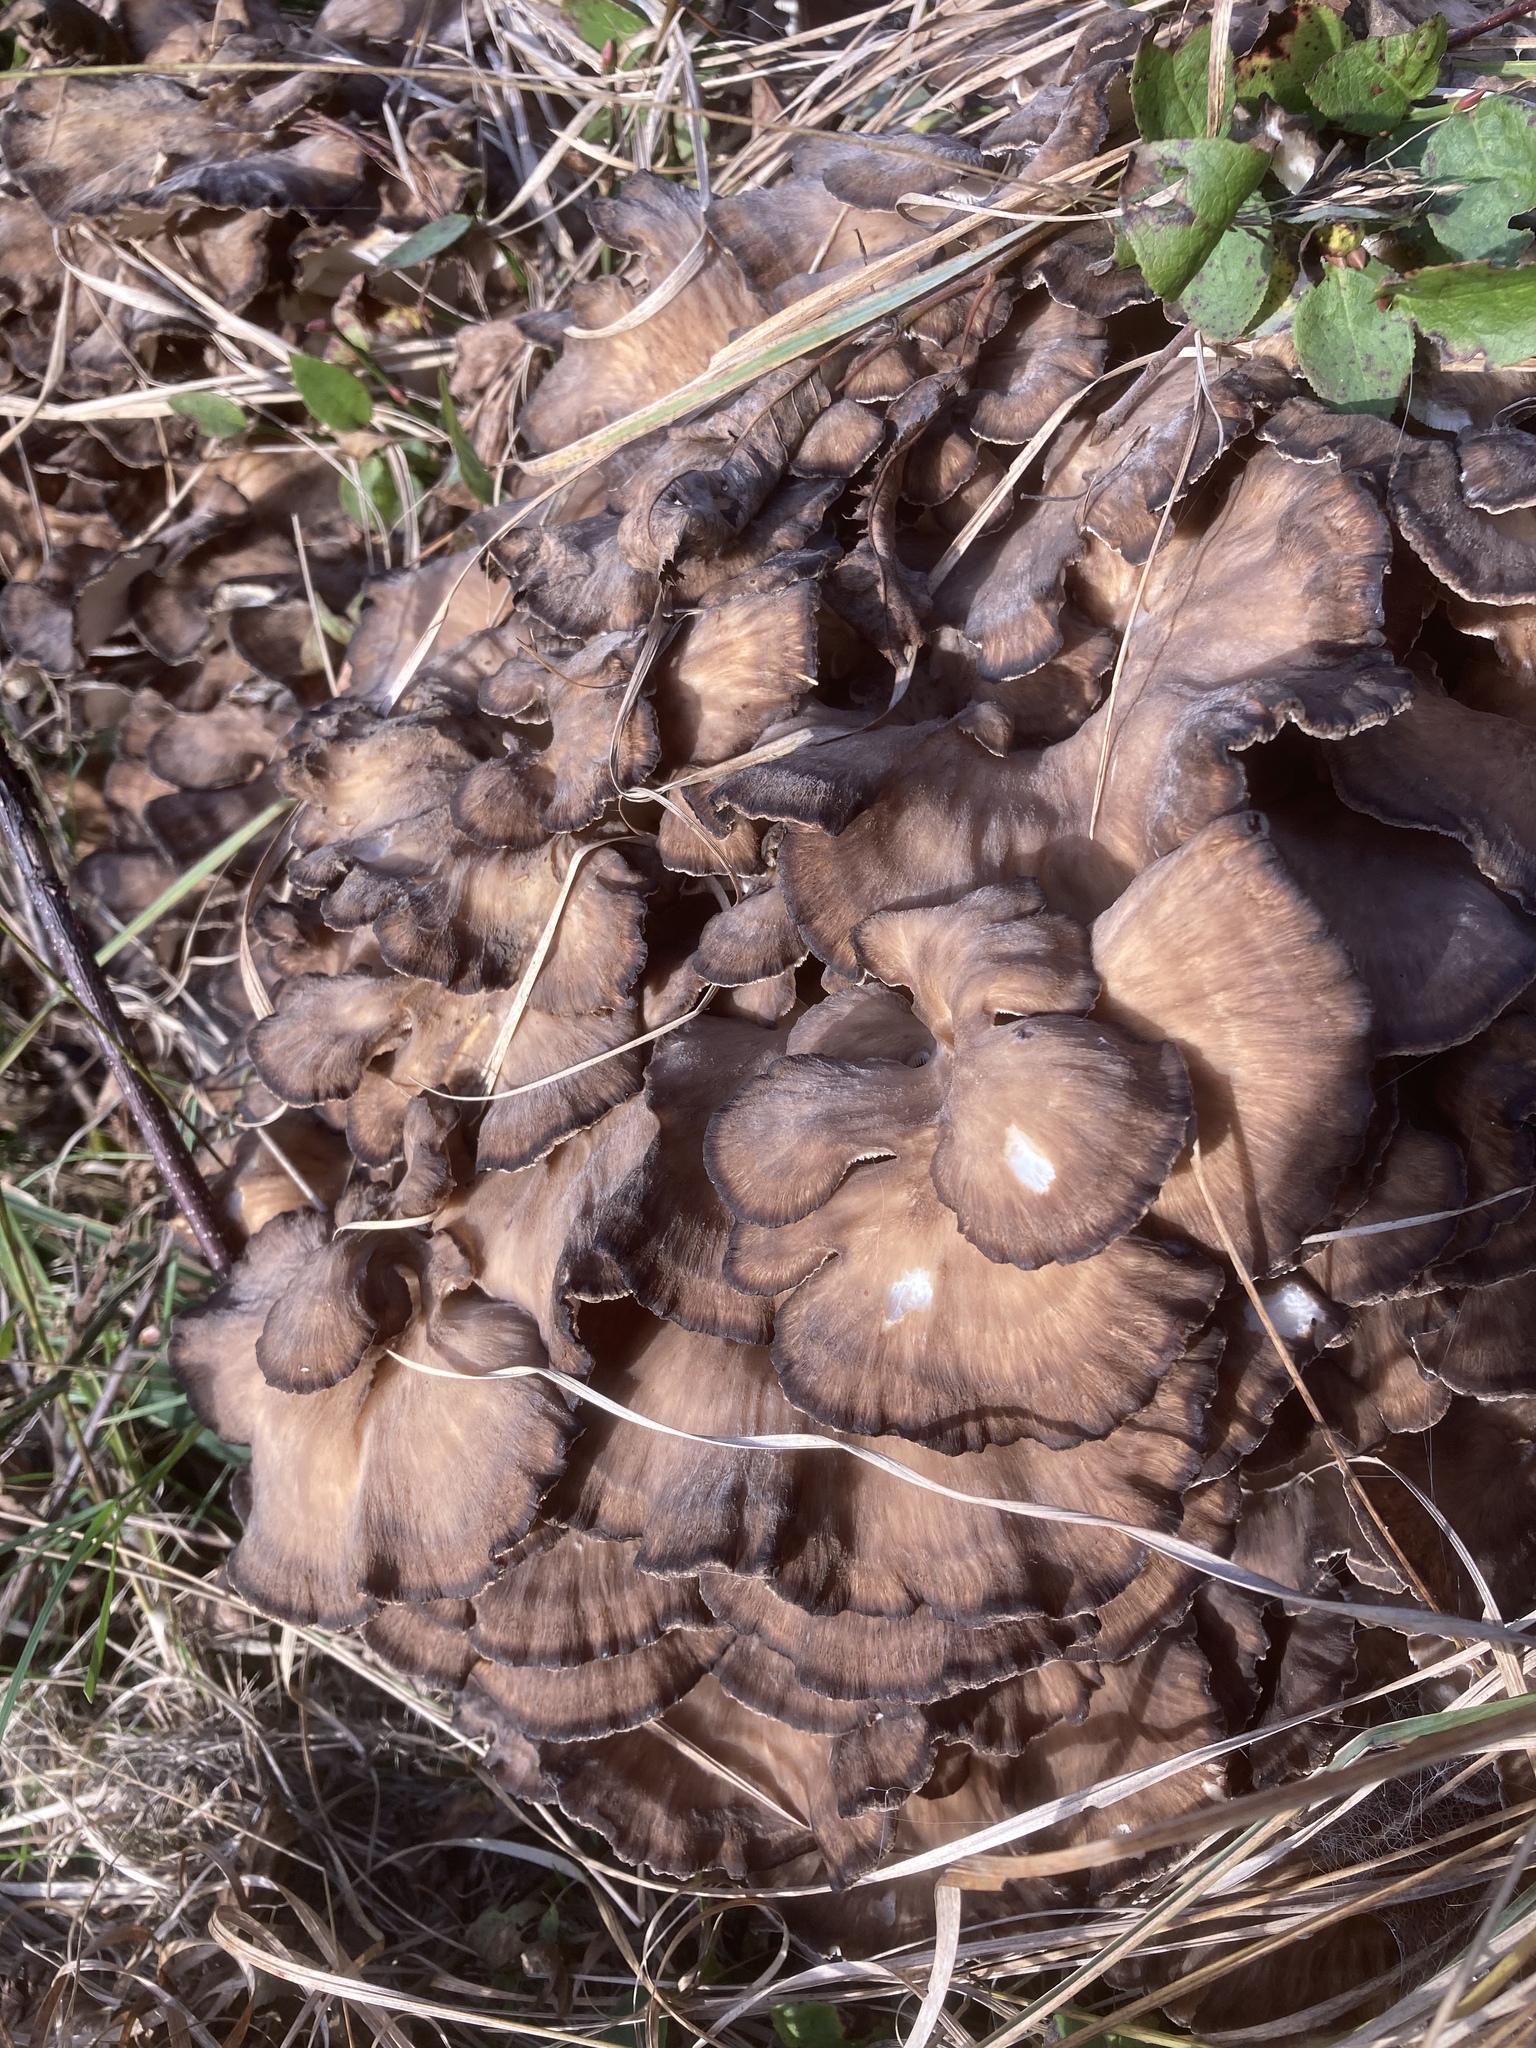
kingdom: Fungi
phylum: Basidiomycota
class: Agaricomycetes
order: Polyporales
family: Grifolaceae
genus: Grifola
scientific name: Grifola frondosa
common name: Hen of the woods
